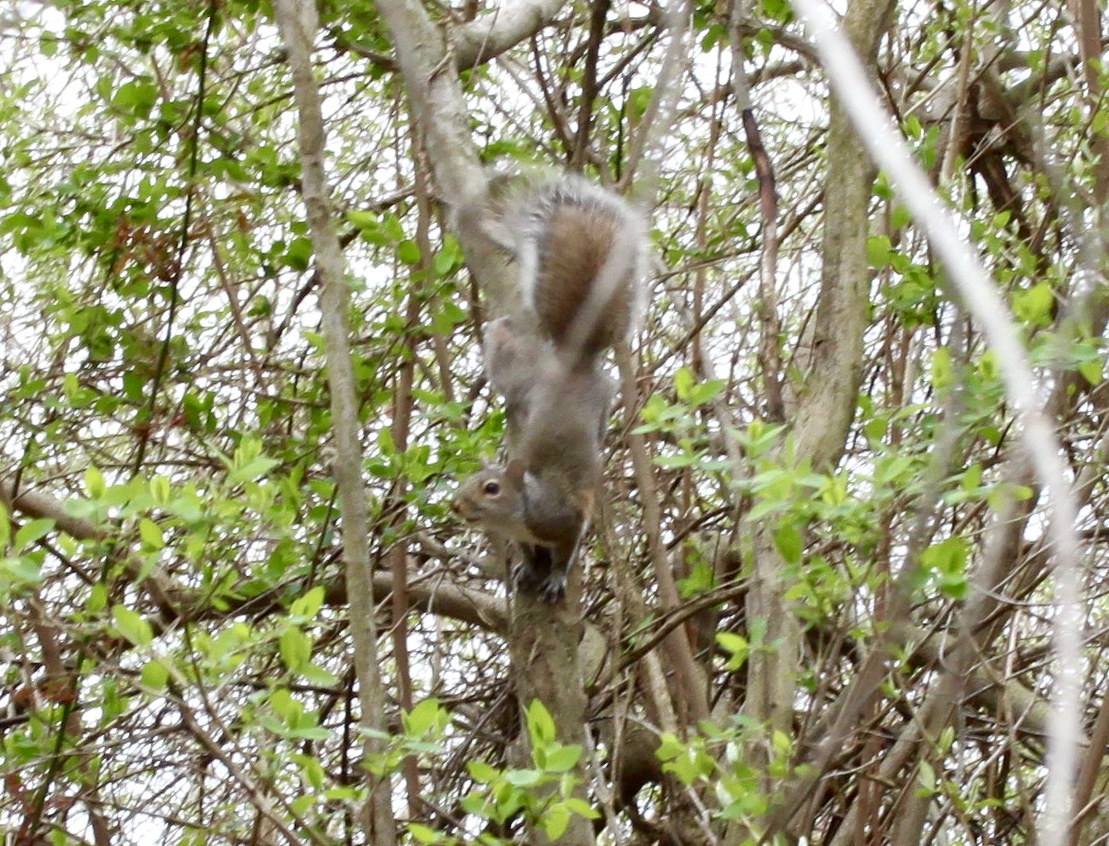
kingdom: Animalia
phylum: Chordata
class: Mammalia
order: Rodentia
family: Sciuridae
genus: Sciurus
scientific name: Sciurus carolinensis
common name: Eastern gray squirrel
